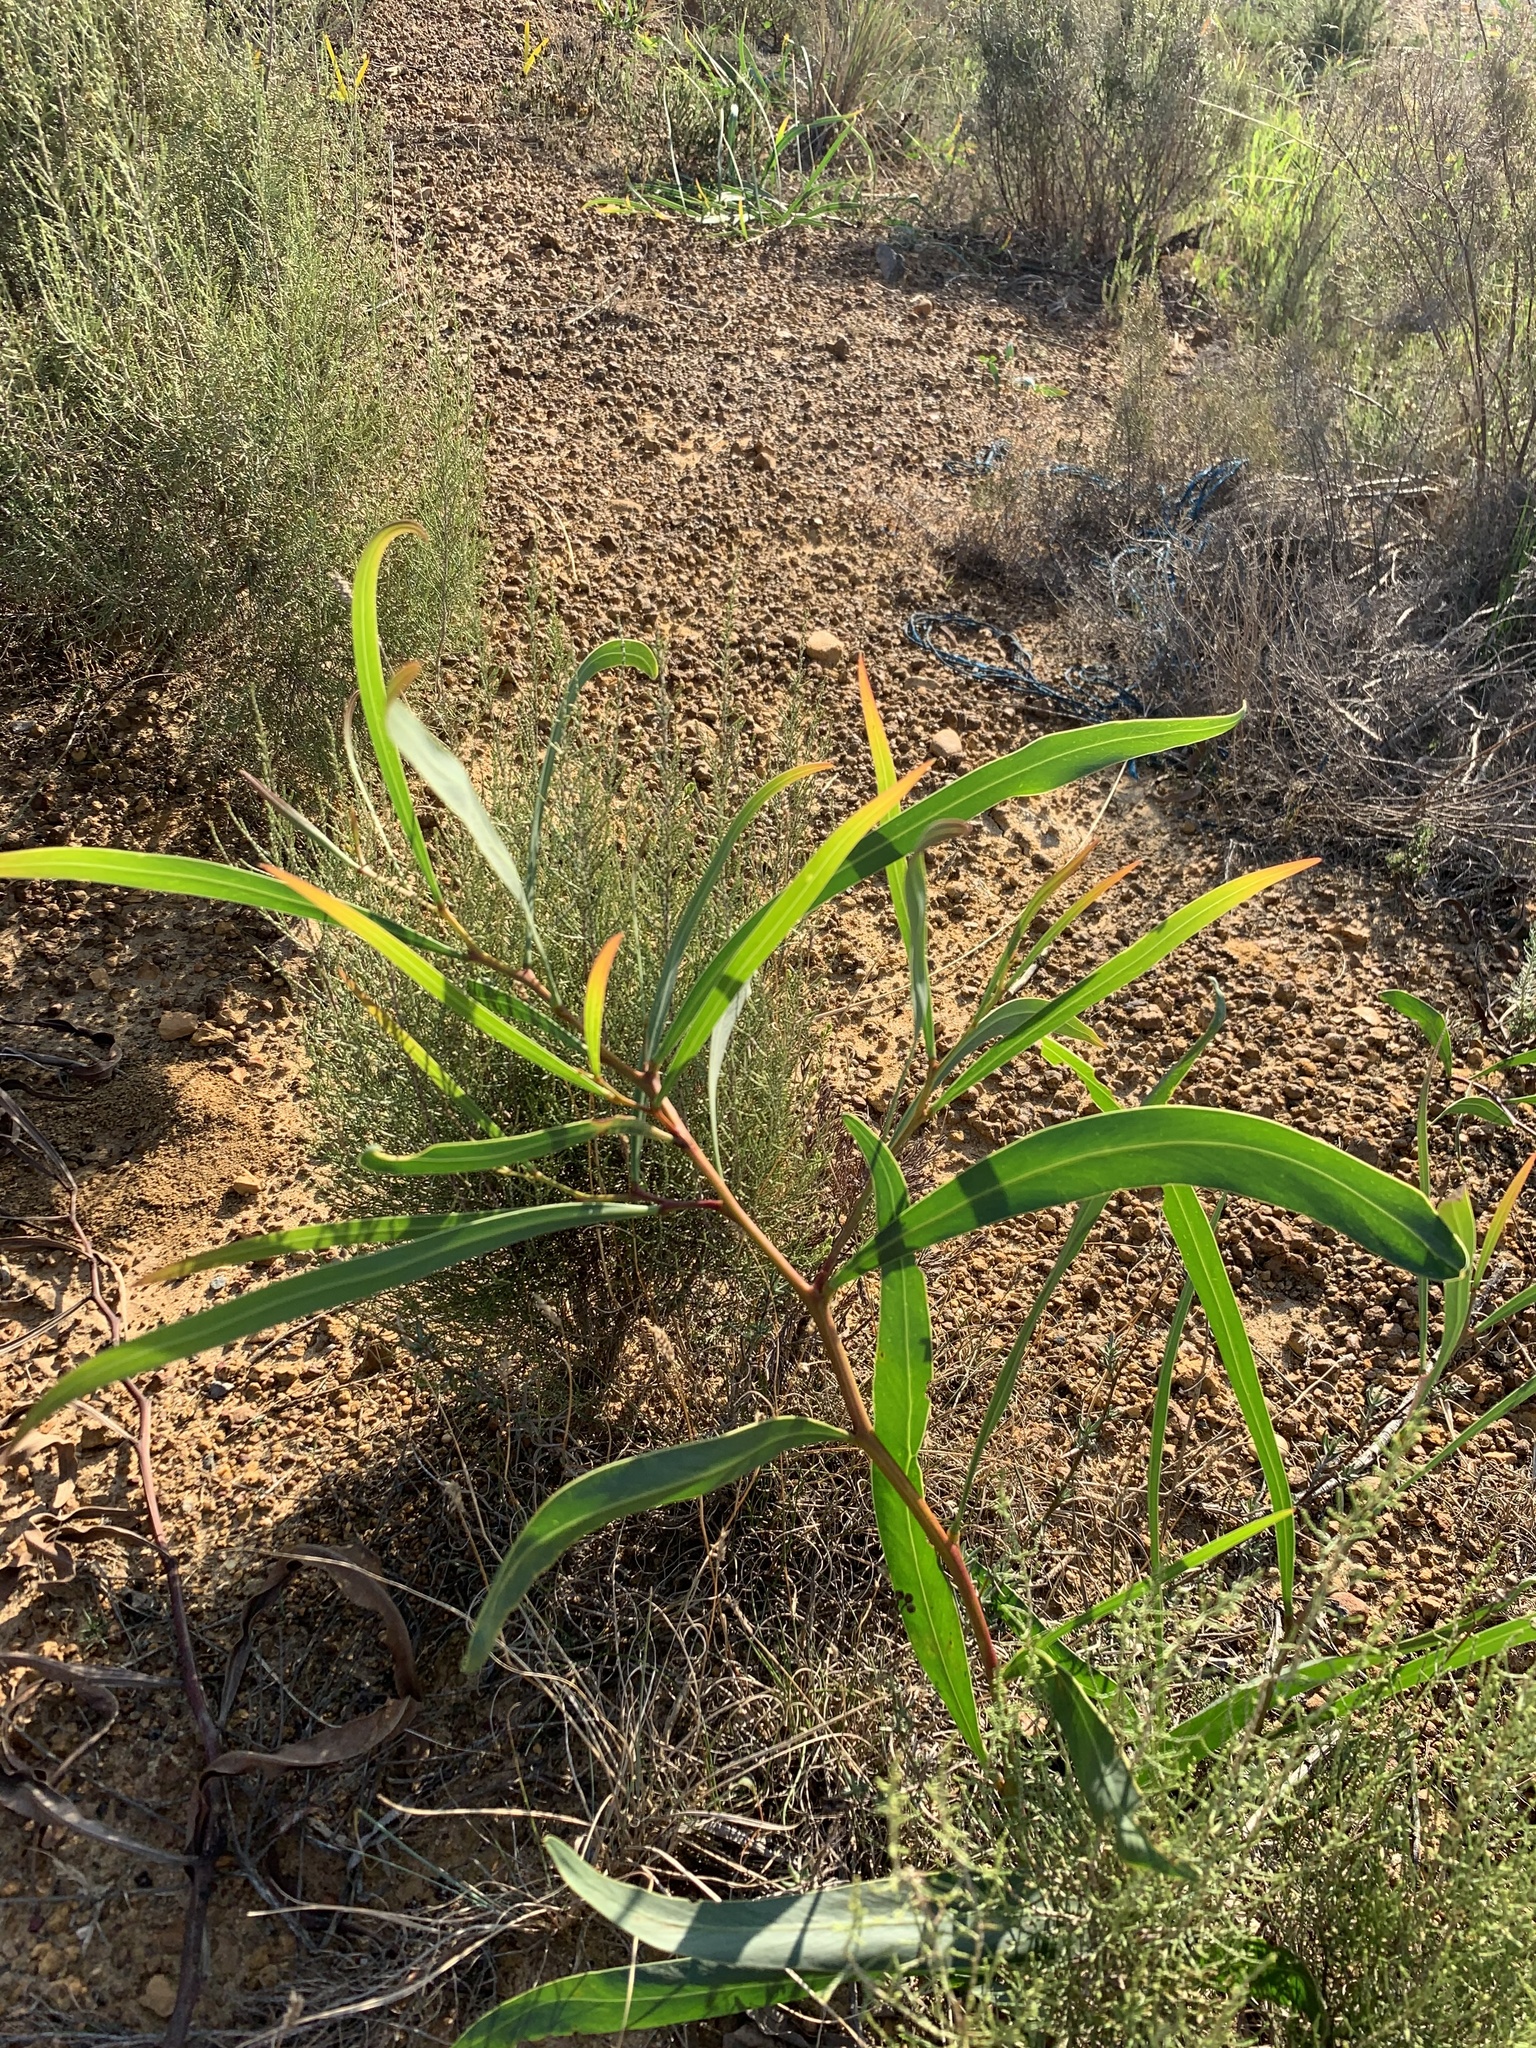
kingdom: Plantae
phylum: Tracheophyta
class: Magnoliopsida
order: Fabales
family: Fabaceae
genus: Acacia
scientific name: Acacia saligna
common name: Orange wattle
